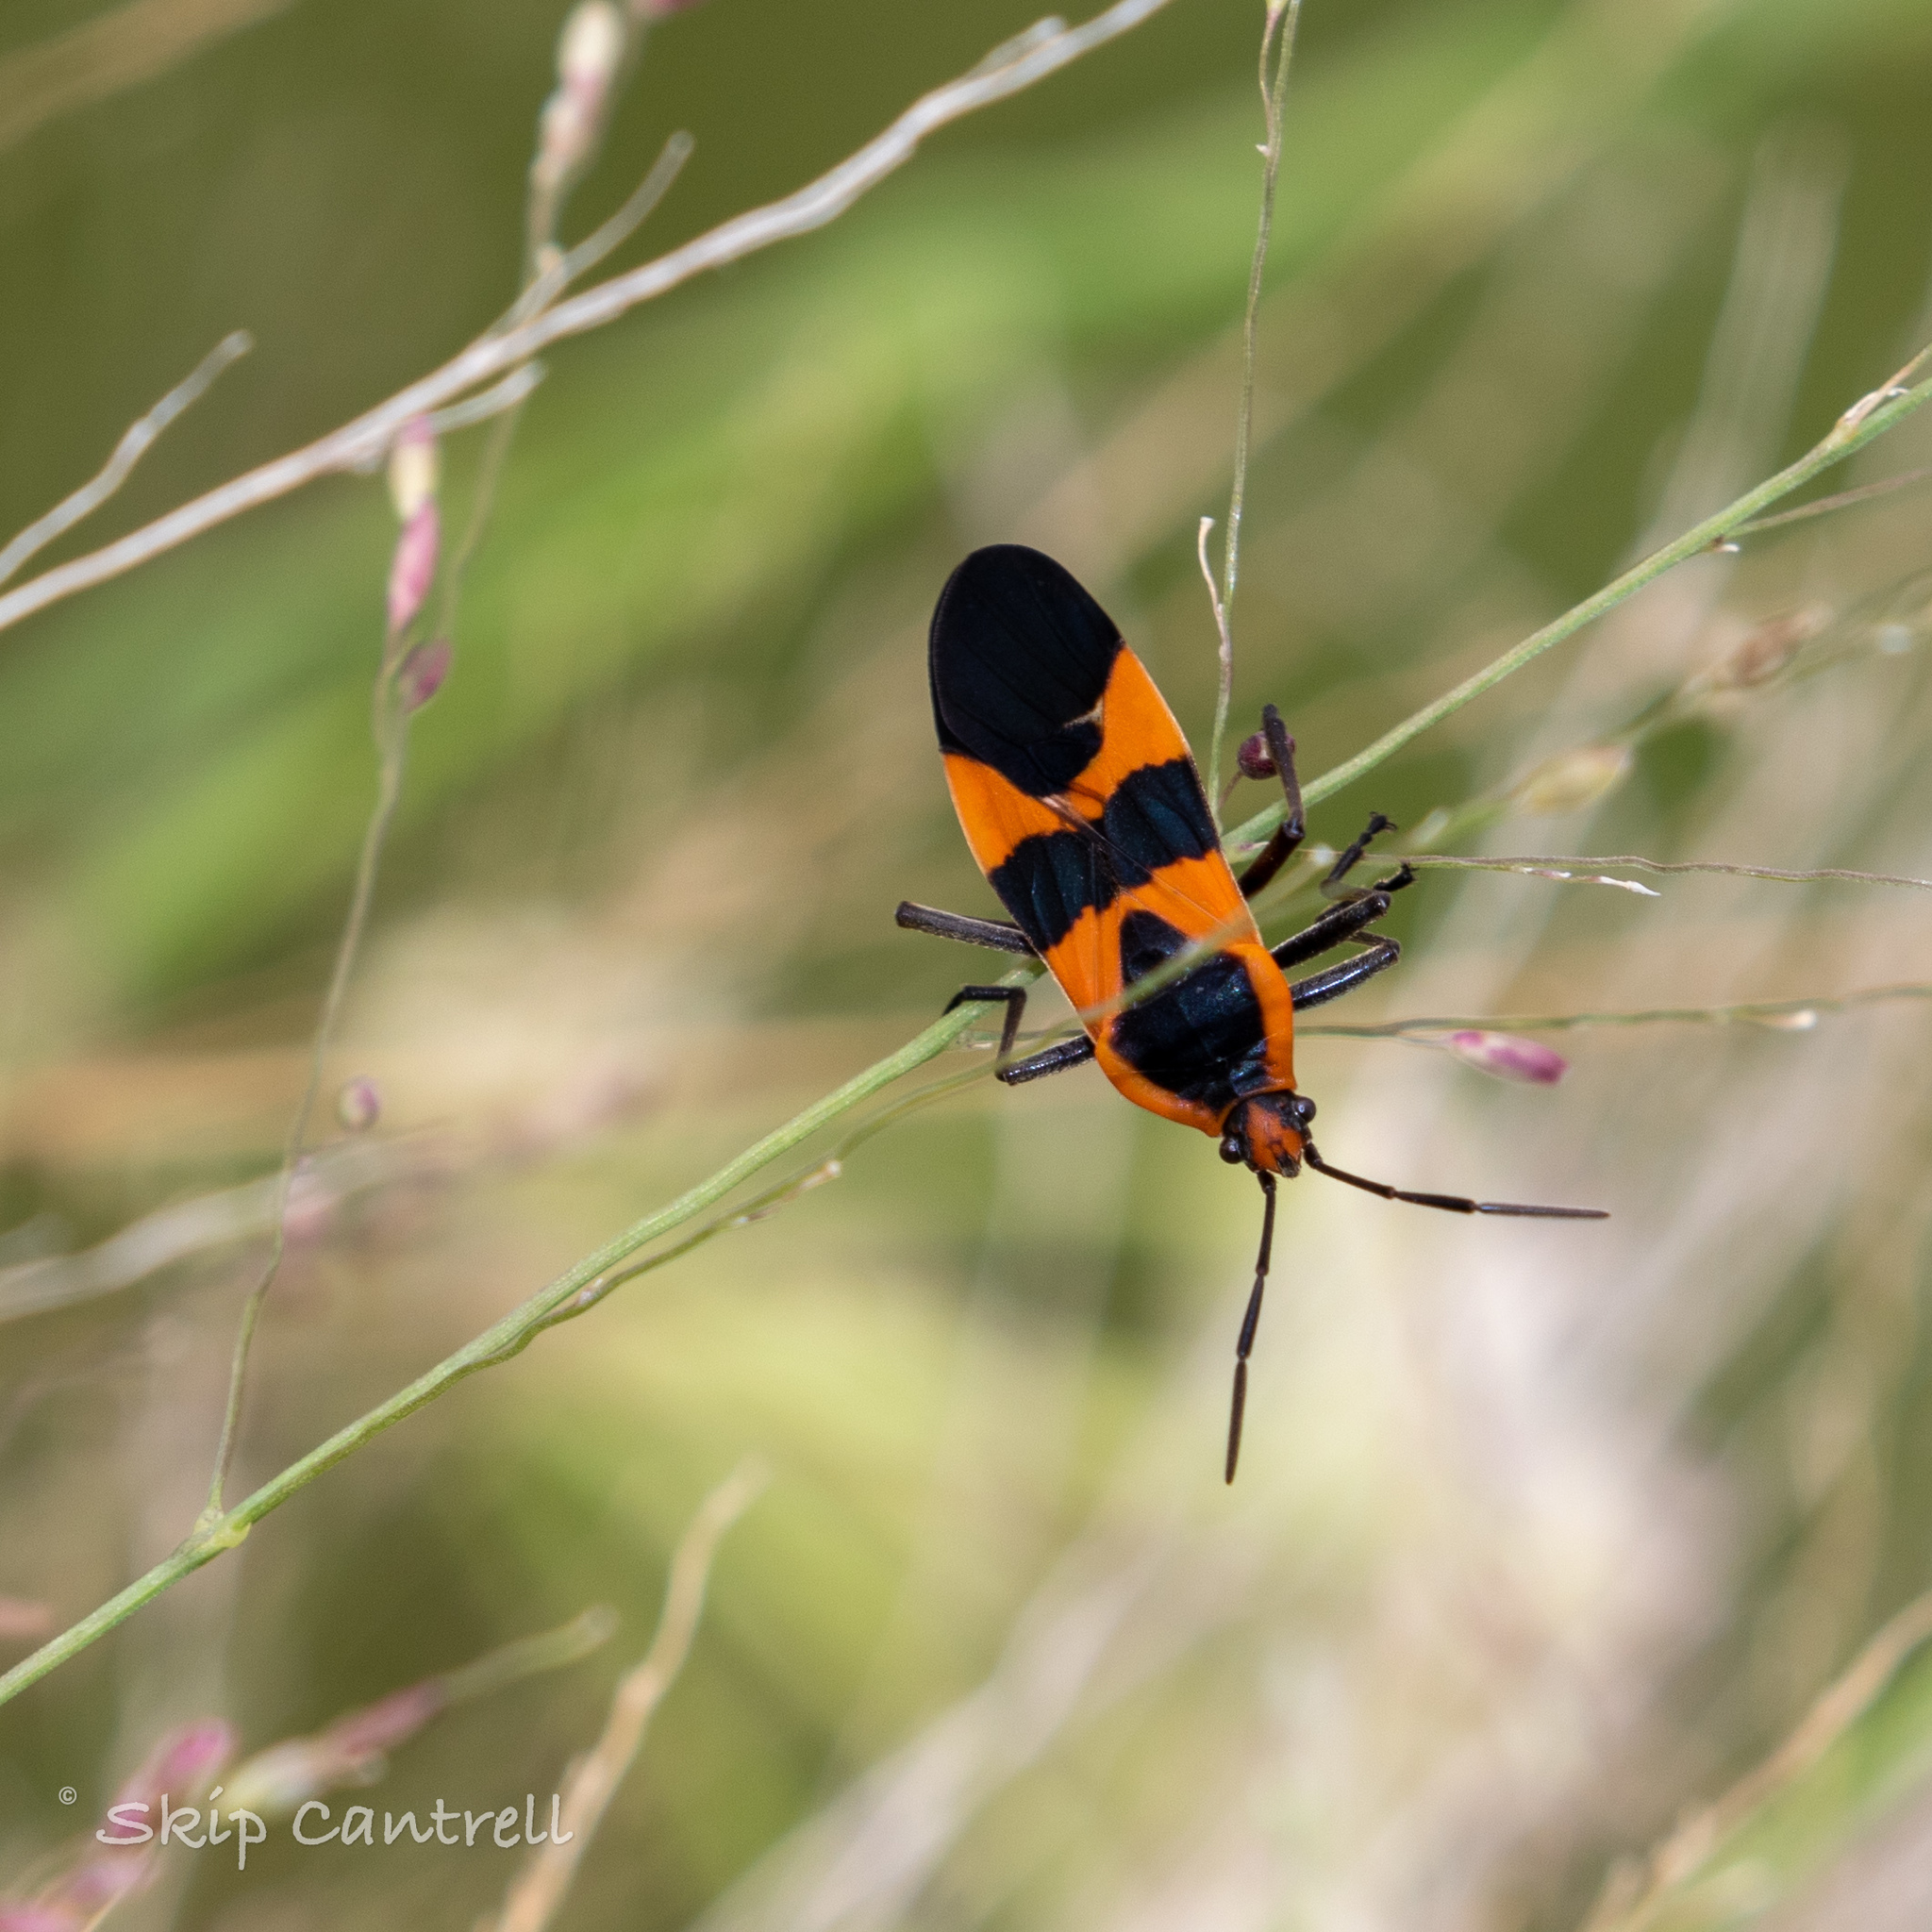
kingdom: Animalia
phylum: Arthropoda
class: Insecta
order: Hemiptera
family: Lygaeidae
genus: Oncopeltus
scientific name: Oncopeltus fasciatus
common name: Large milkweed bug
